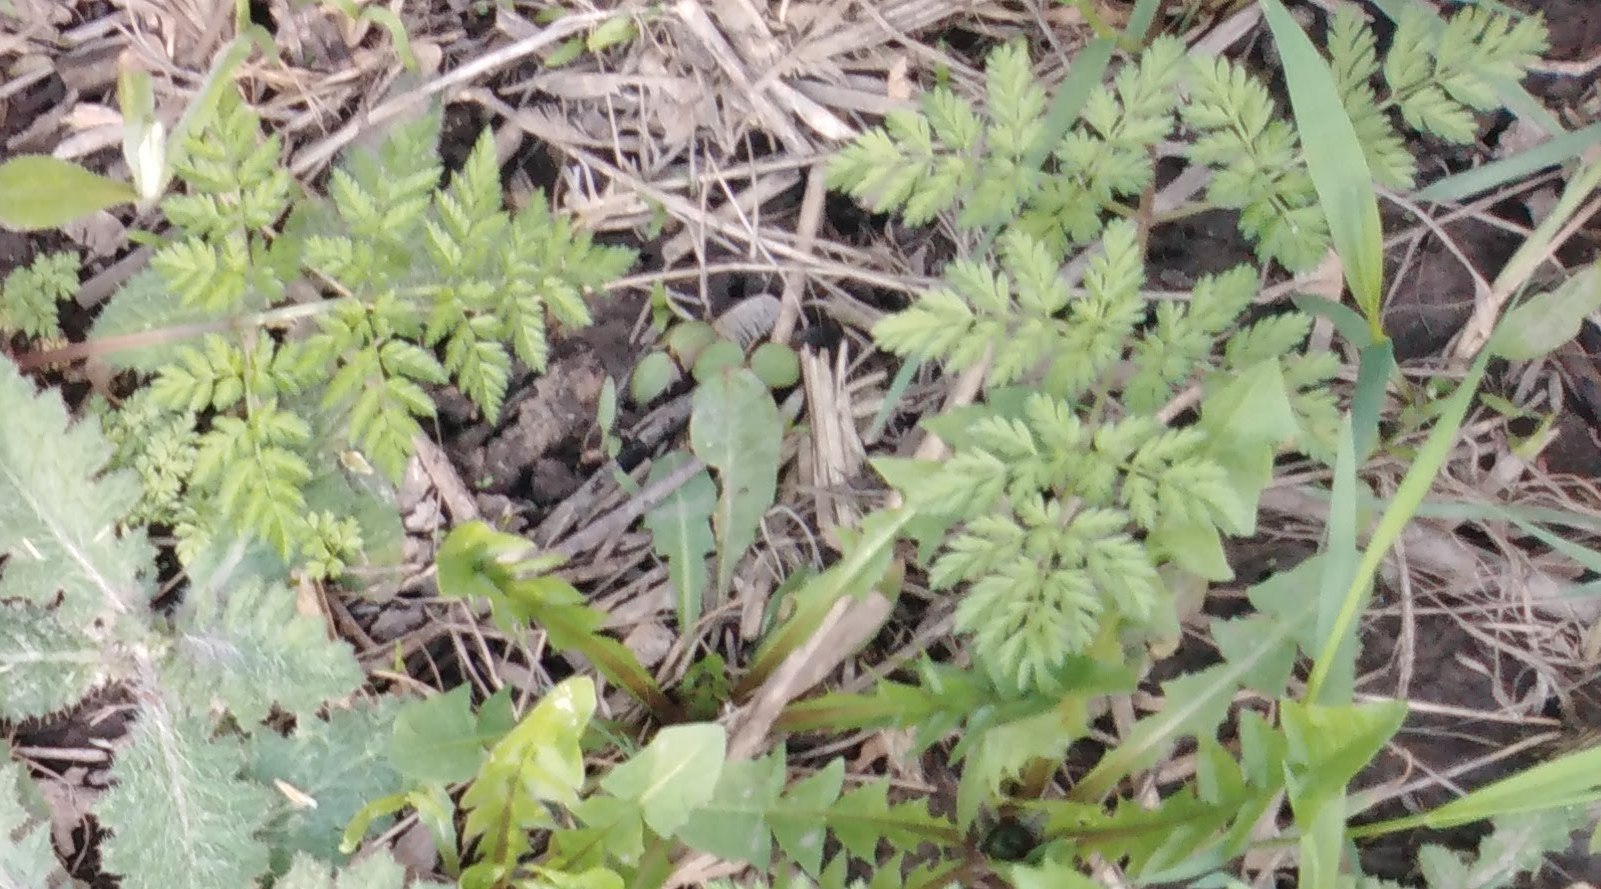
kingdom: Plantae
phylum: Tracheophyta
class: Magnoliopsida
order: Apiales
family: Apiaceae
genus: Anthriscus
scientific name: Anthriscus sylvestris
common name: Cow parsley
